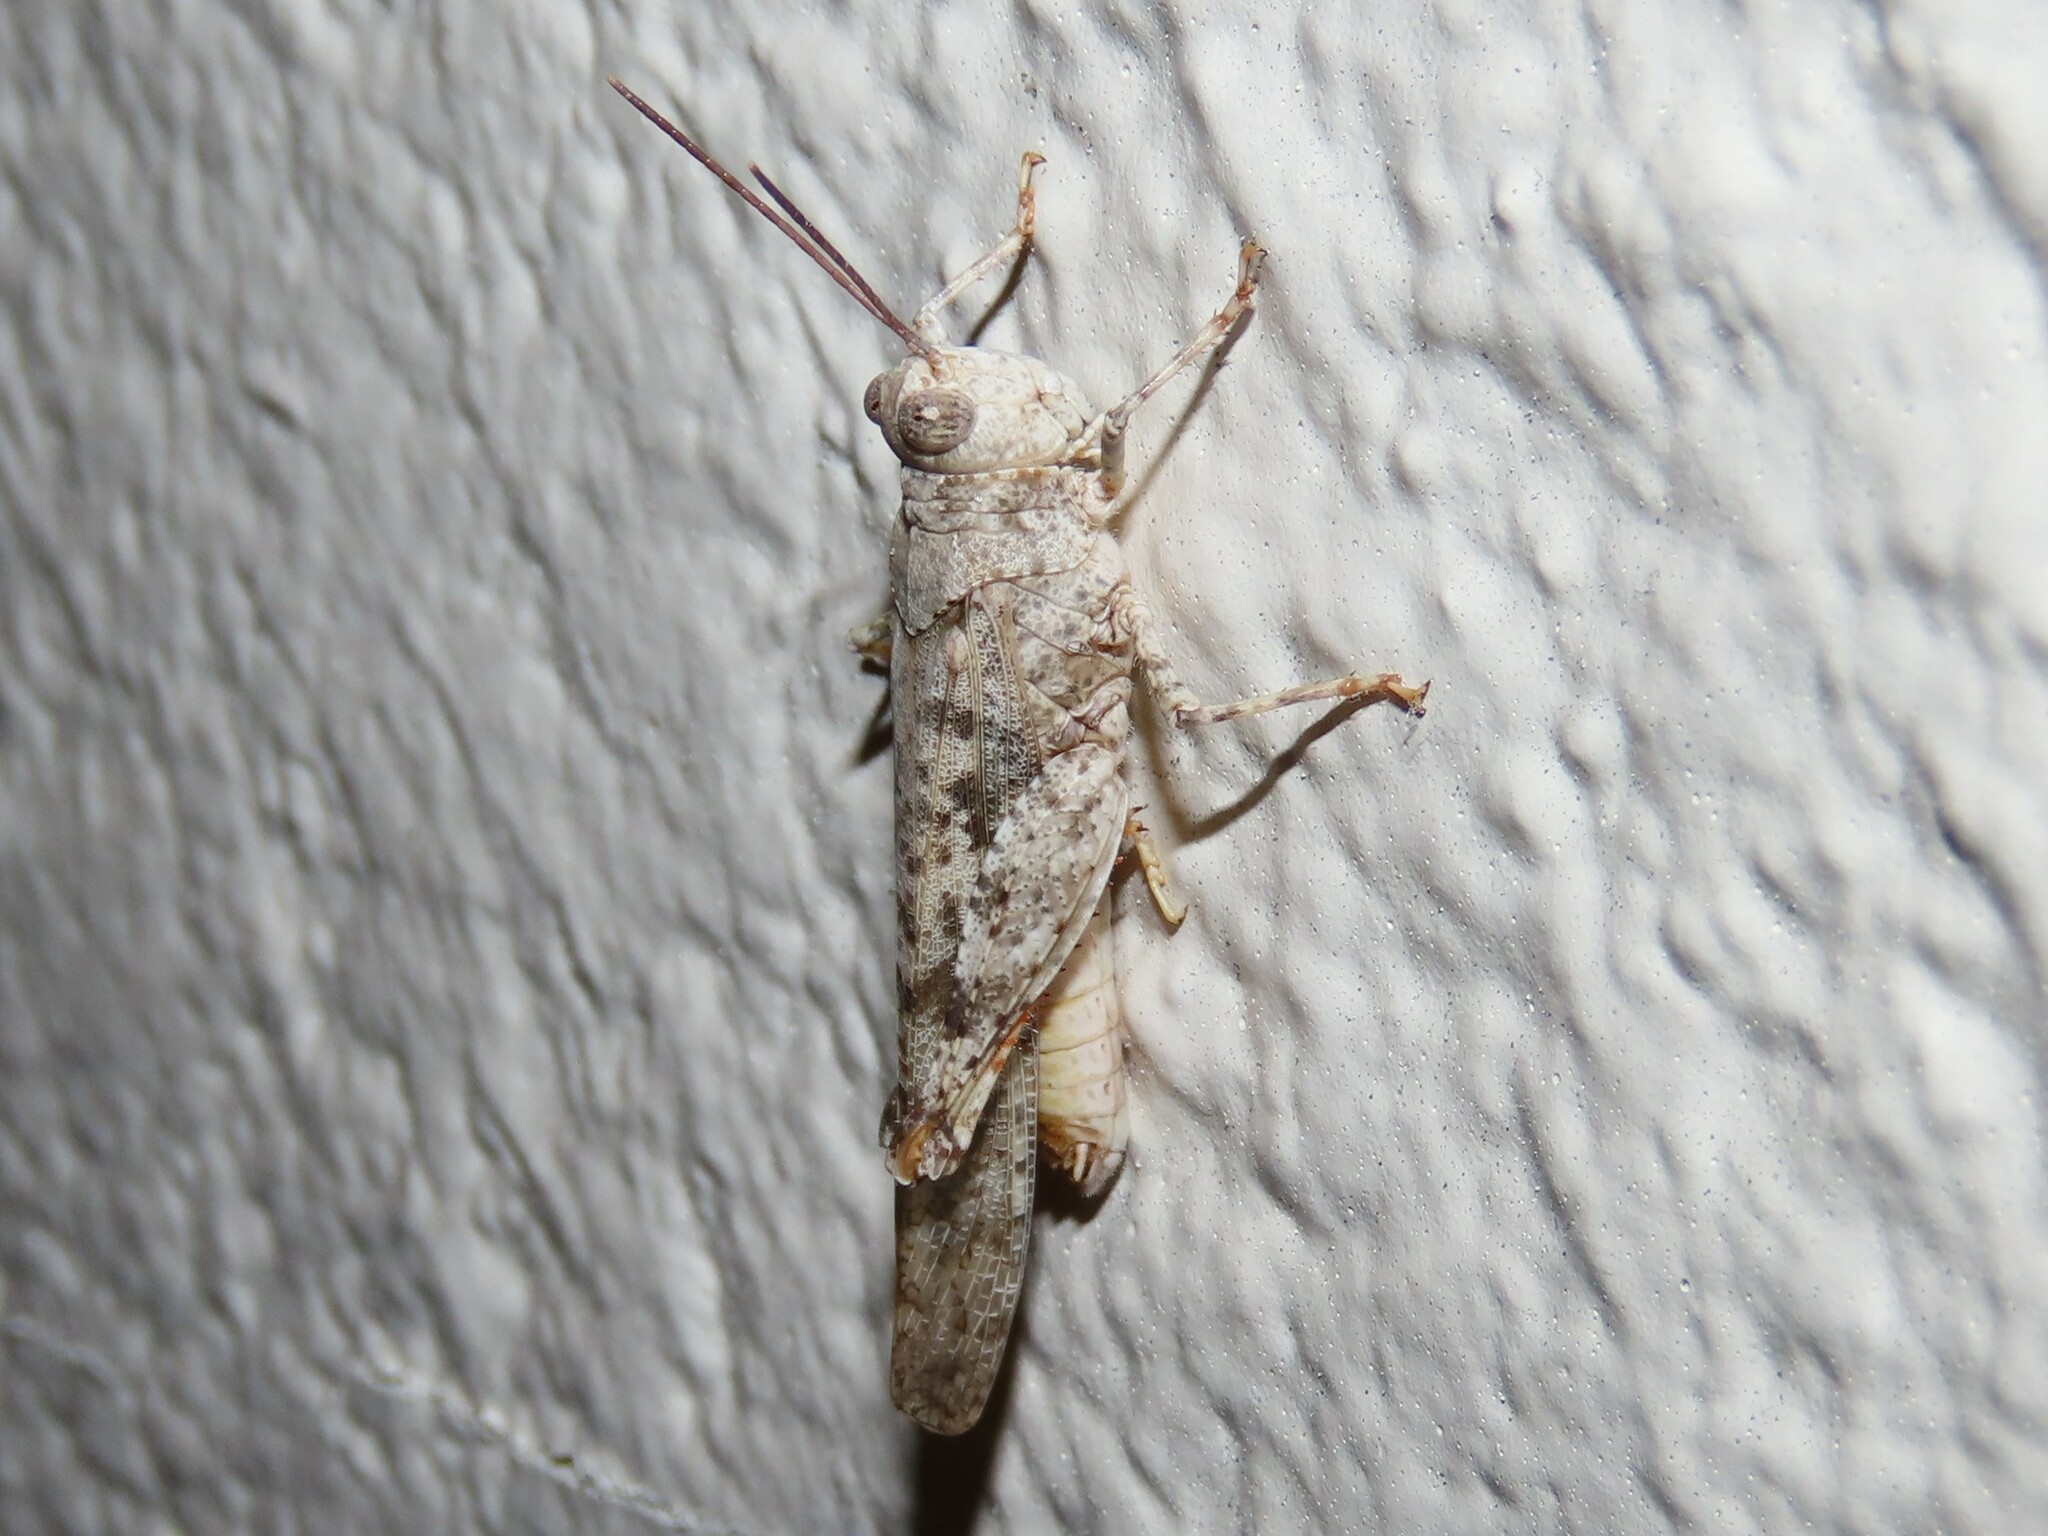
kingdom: Animalia
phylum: Arthropoda
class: Insecta
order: Orthoptera
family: Acrididae
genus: Trimerotropis
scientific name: Trimerotropis maritima
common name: Seaside locust
